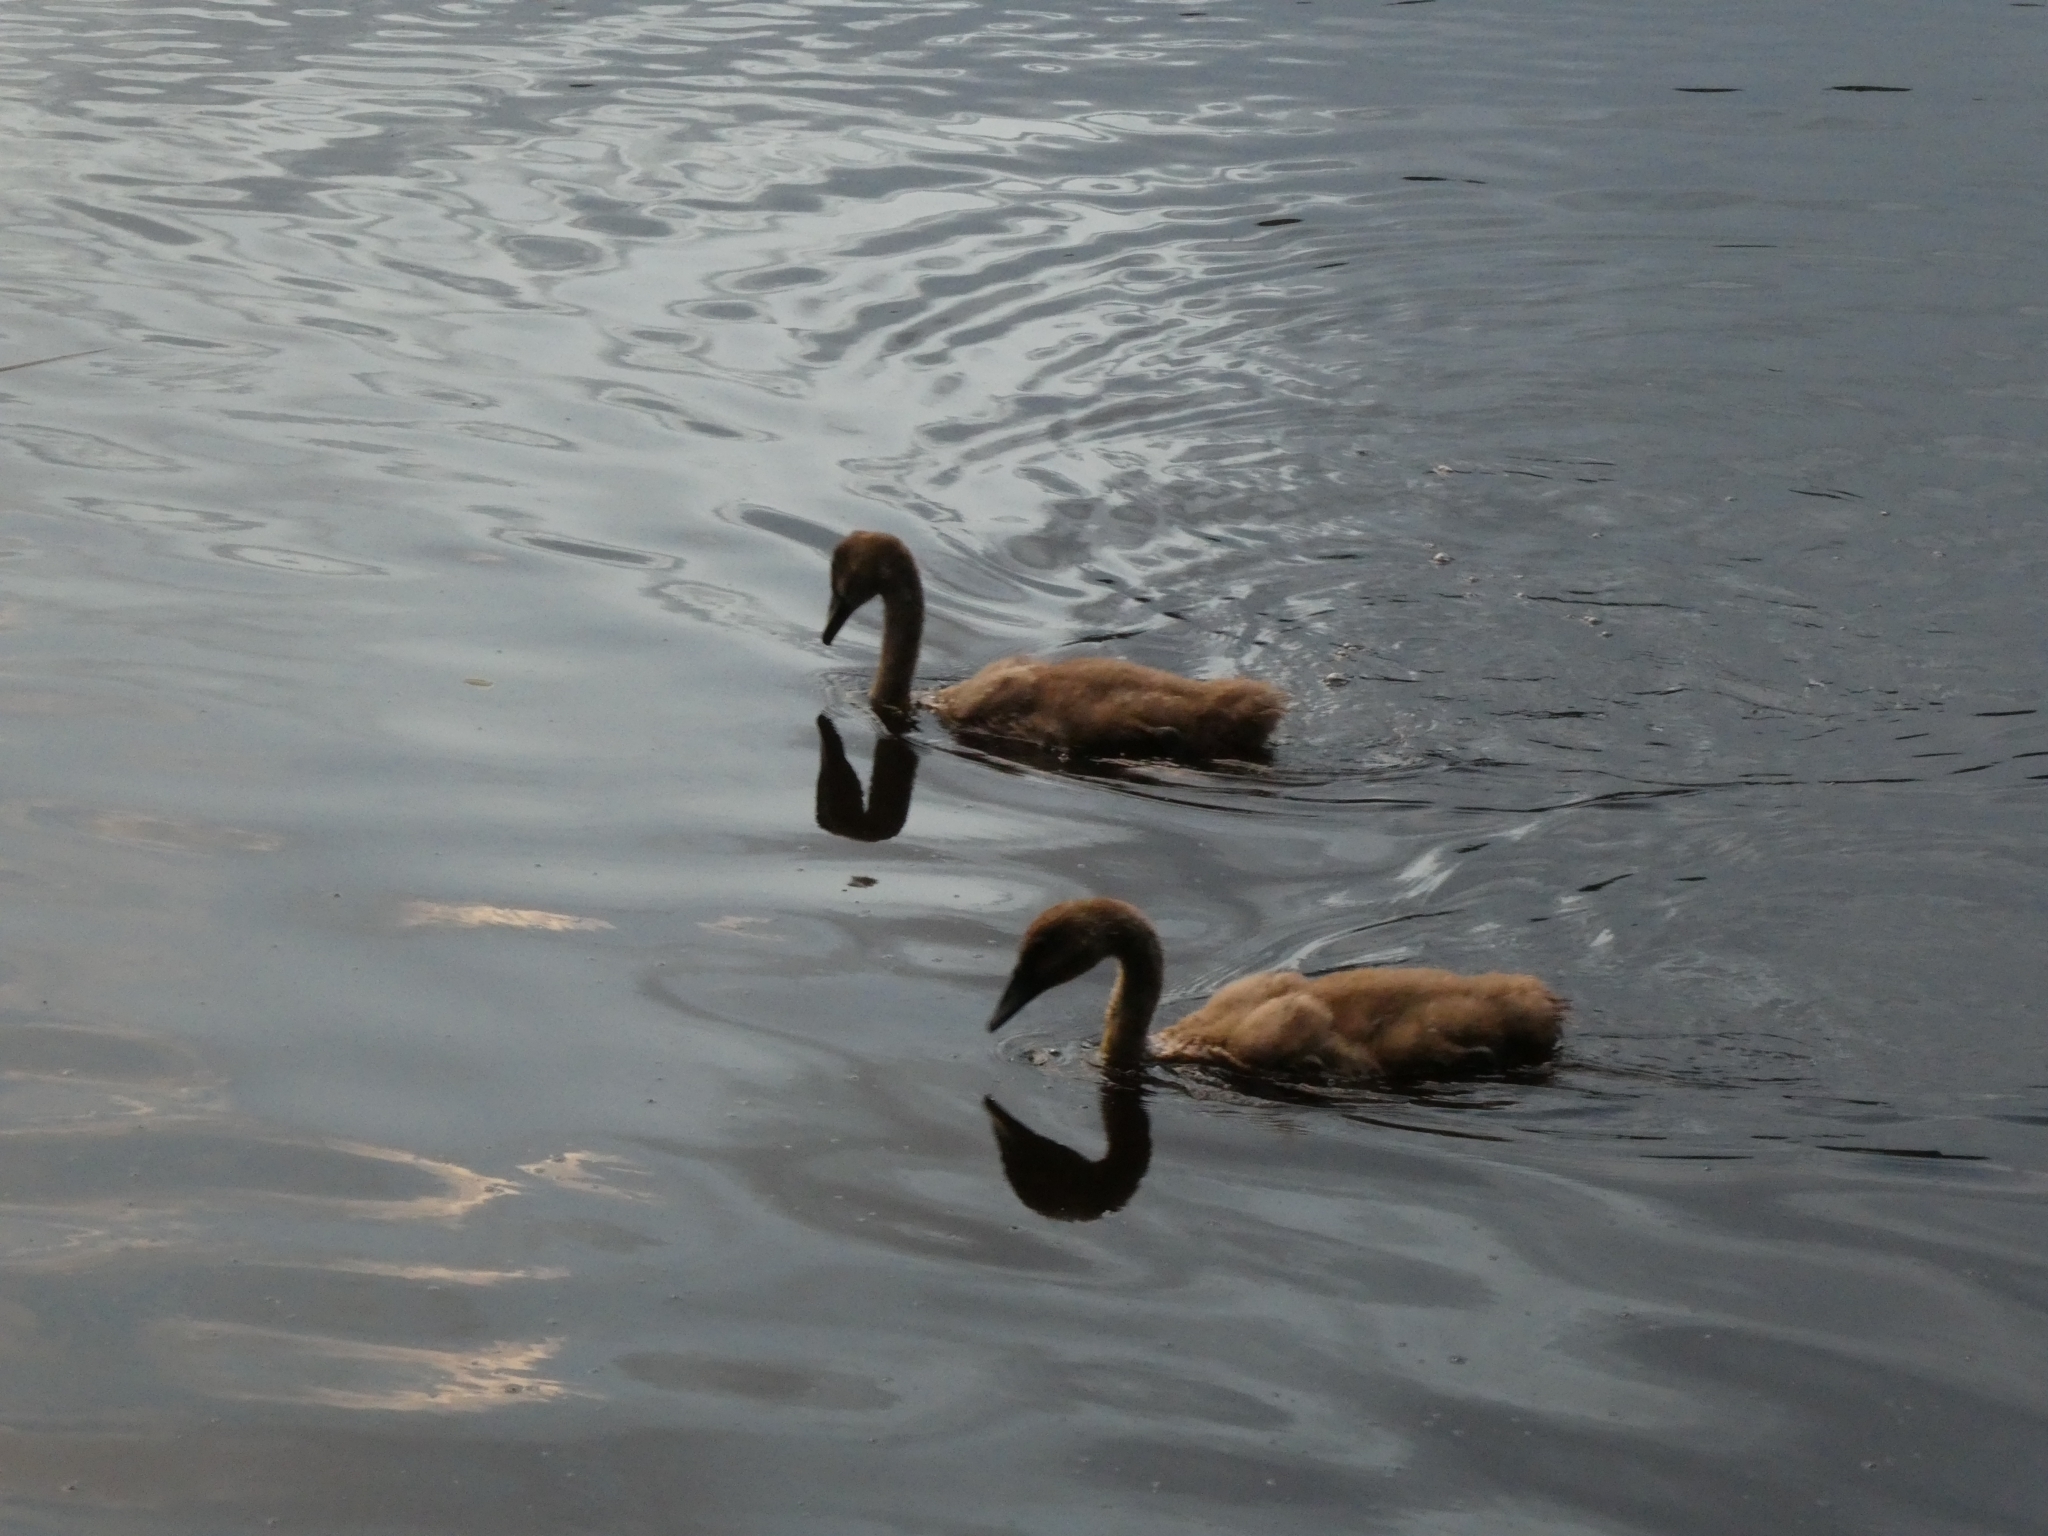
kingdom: Animalia
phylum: Chordata
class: Aves
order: Anseriformes
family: Anatidae
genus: Cygnus
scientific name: Cygnus olor
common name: Mute swan
